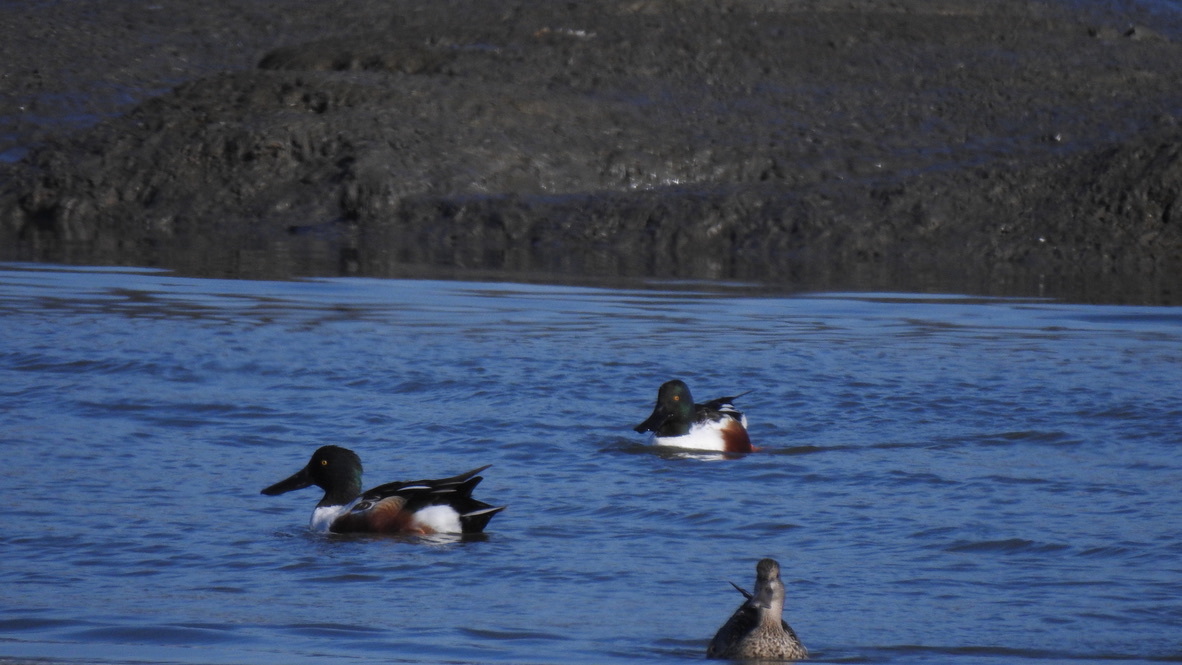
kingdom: Animalia
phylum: Chordata
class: Aves
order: Anseriformes
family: Anatidae
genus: Spatula
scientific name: Spatula clypeata
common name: Northern shoveler
